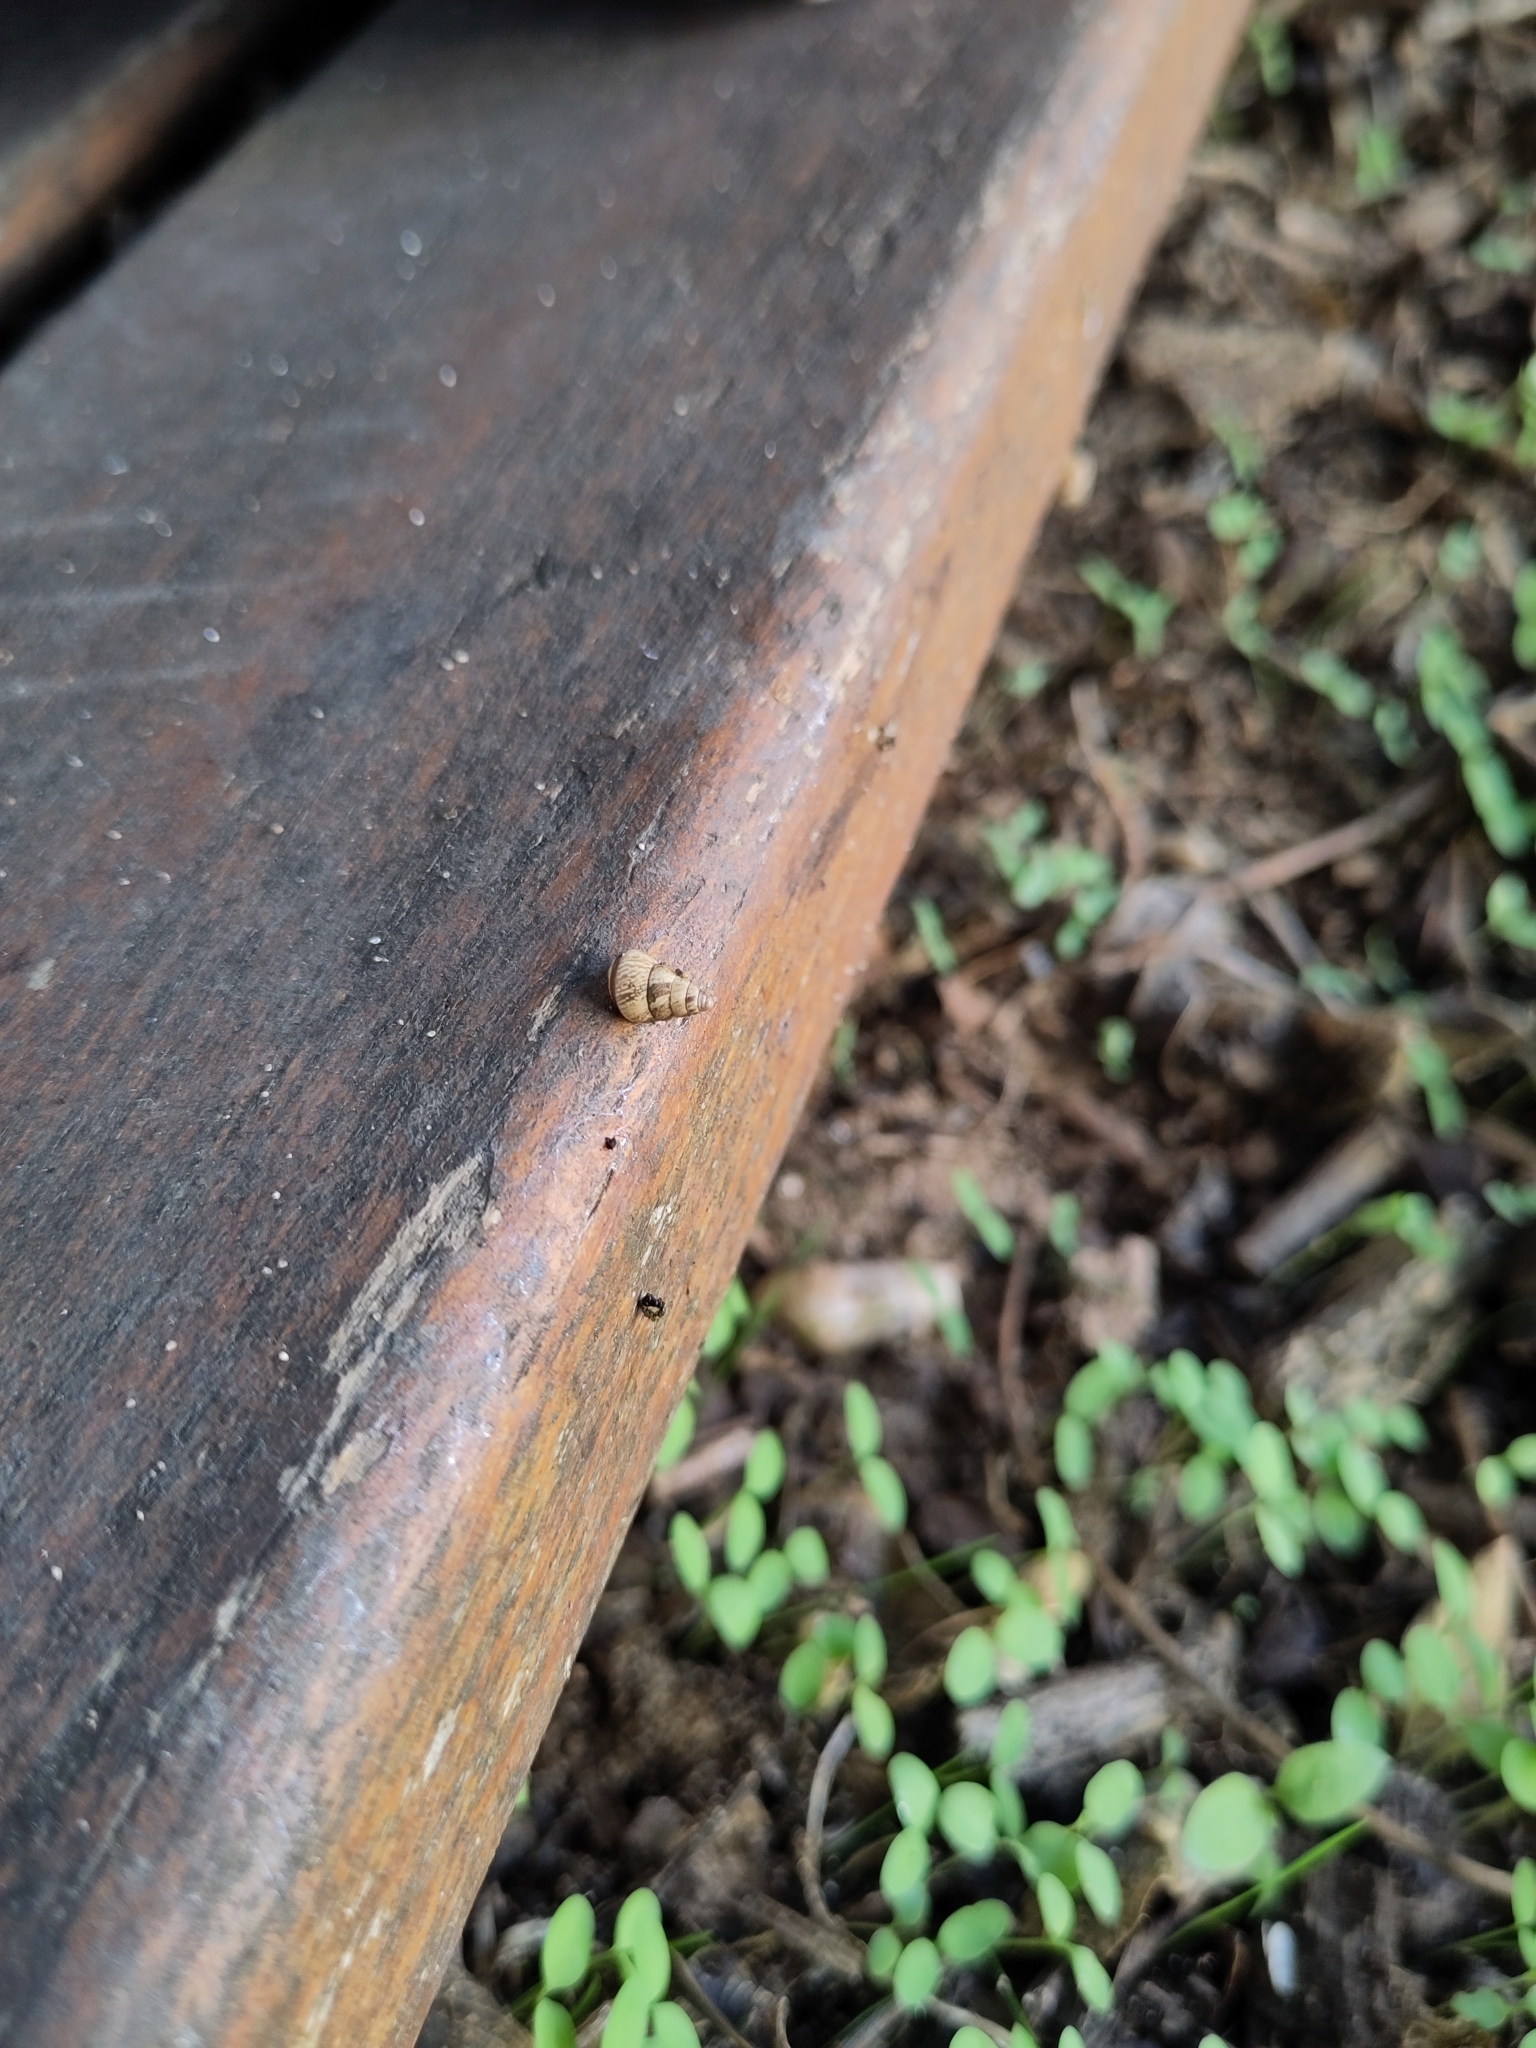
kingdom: Animalia
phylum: Mollusca
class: Gastropoda
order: Stylommatophora
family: Geomitridae
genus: Cochlicella
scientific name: Cochlicella barbara
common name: Potbellied helicellid
